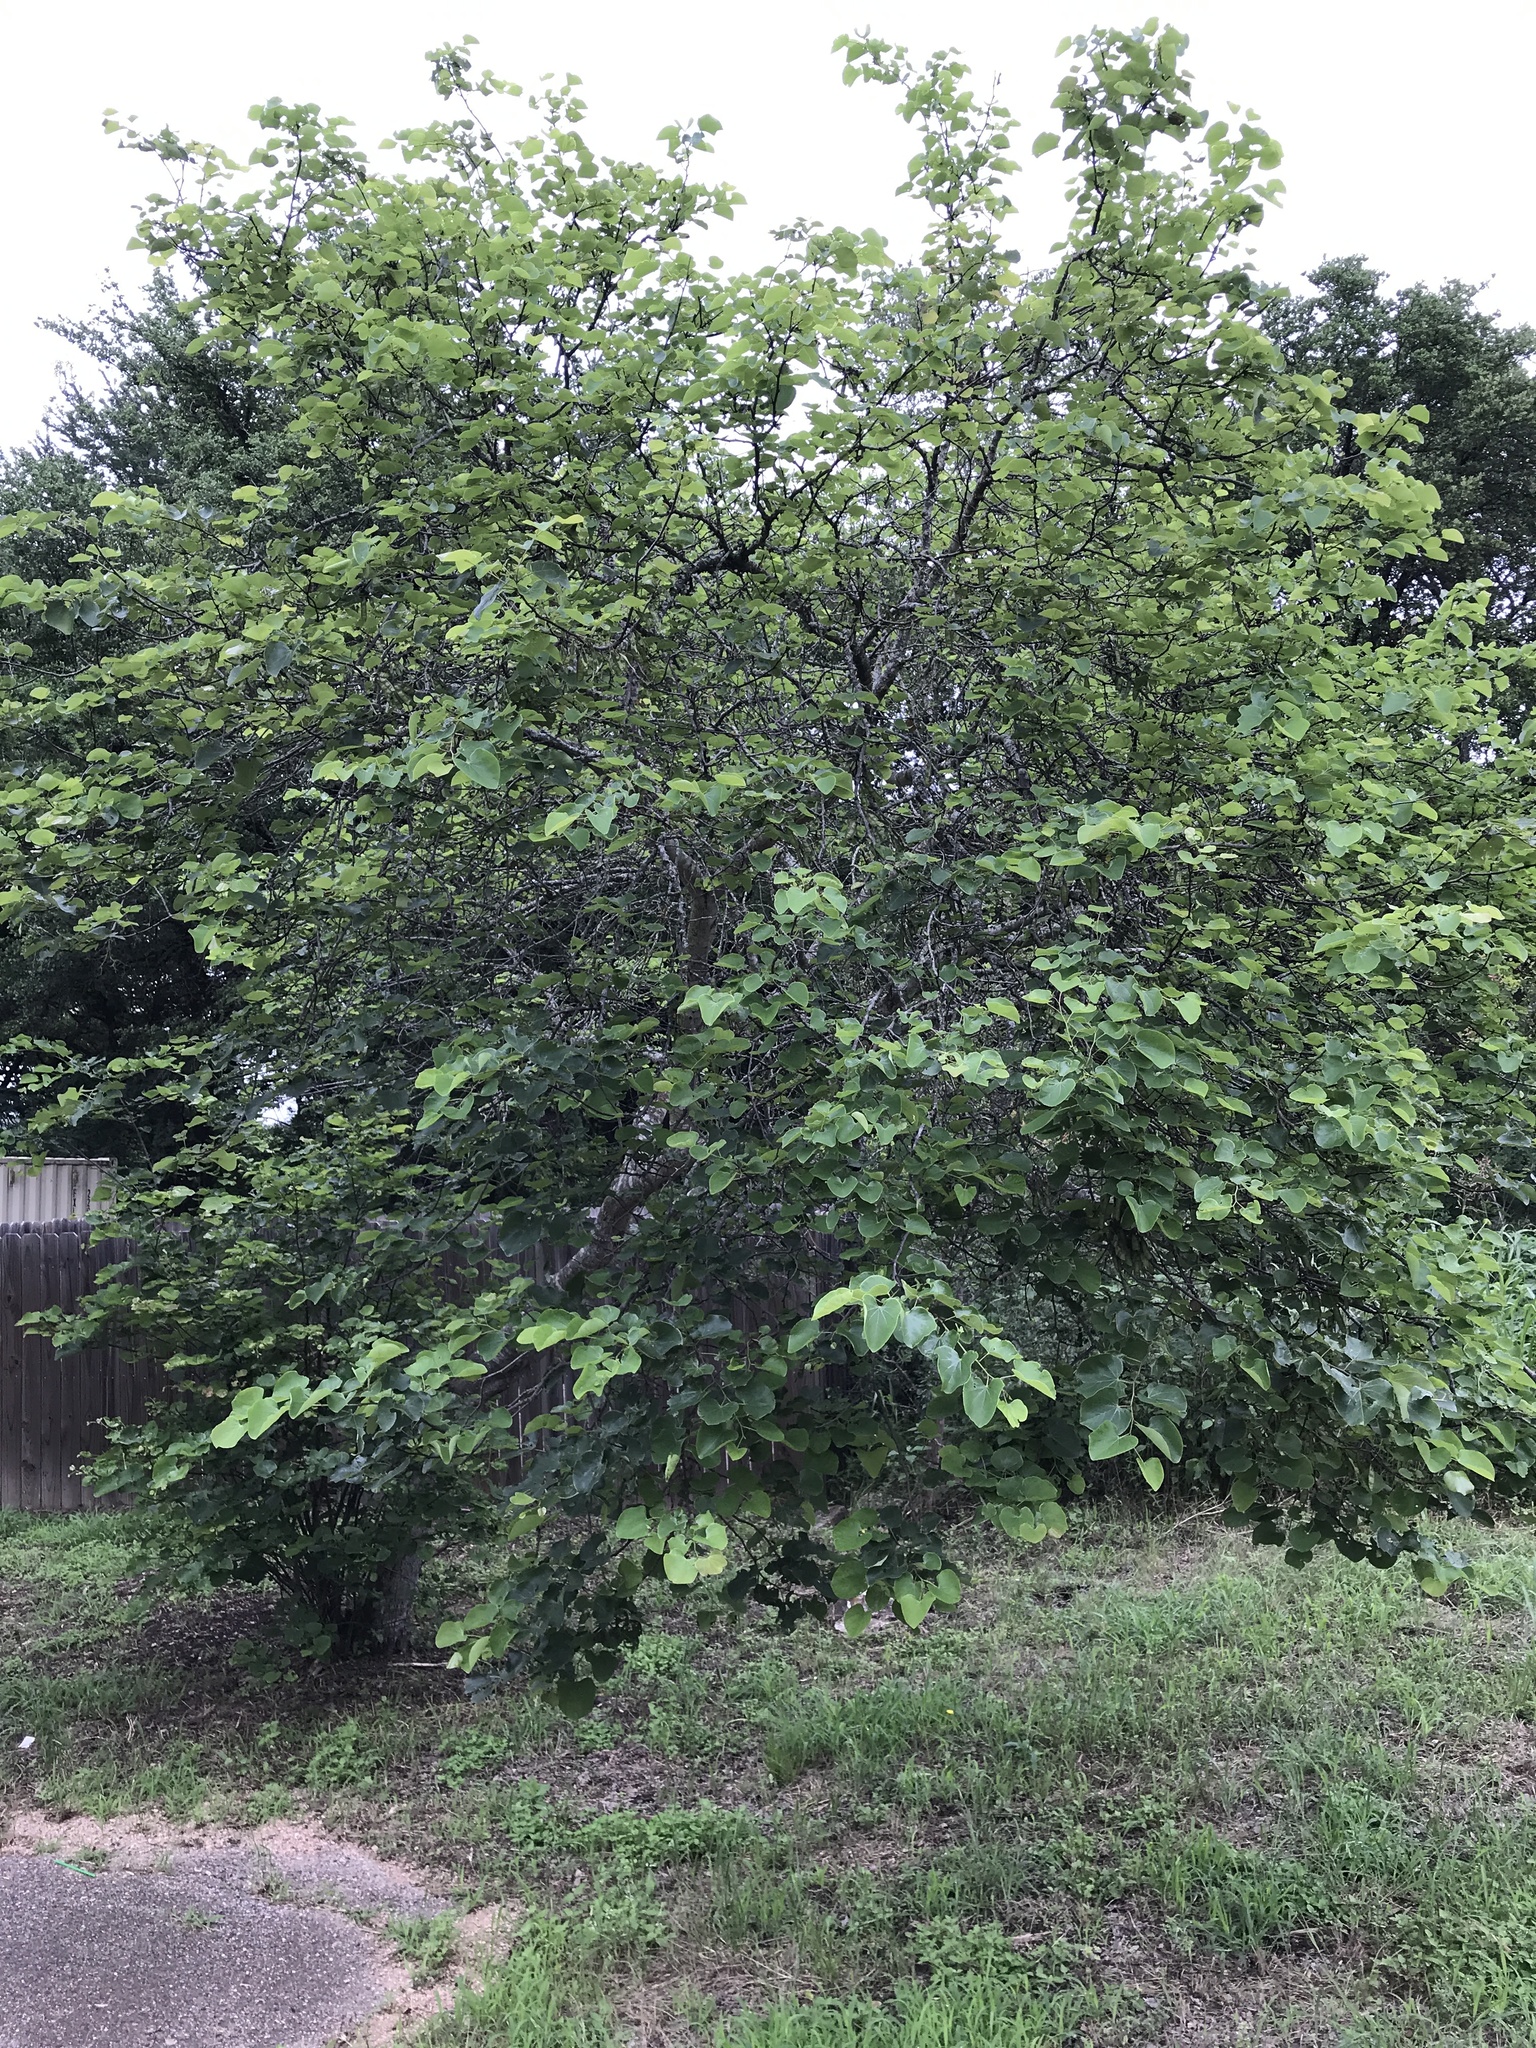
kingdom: Plantae
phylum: Tracheophyta
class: Magnoliopsida
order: Fabales
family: Fabaceae
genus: Cercis
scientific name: Cercis canadensis
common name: Eastern redbud
